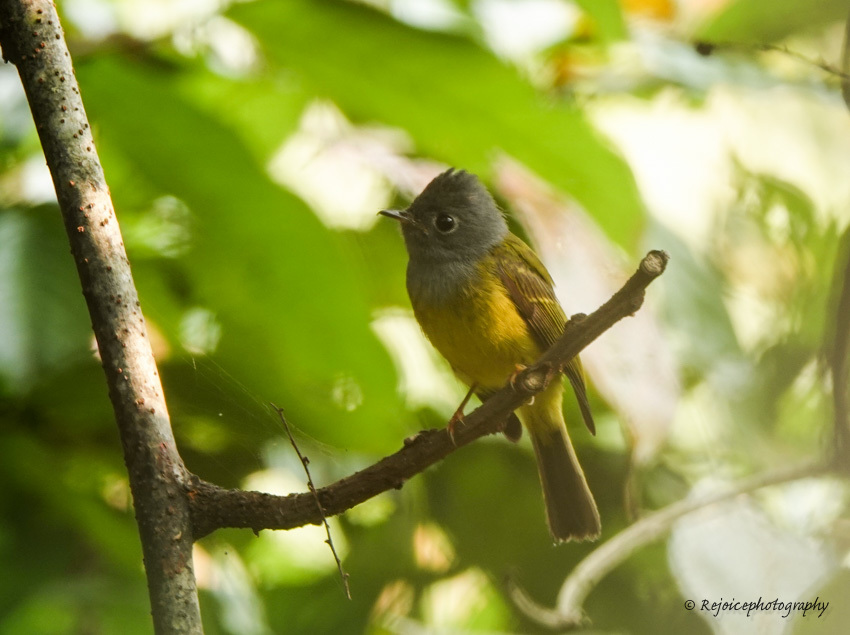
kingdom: Animalia
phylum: Chordata
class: Aves
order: Passeriformes
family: Stenostiridae
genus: Culicicapa
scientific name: Culicicapa ceylonensis
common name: Grey-headed canary-flycatcher
